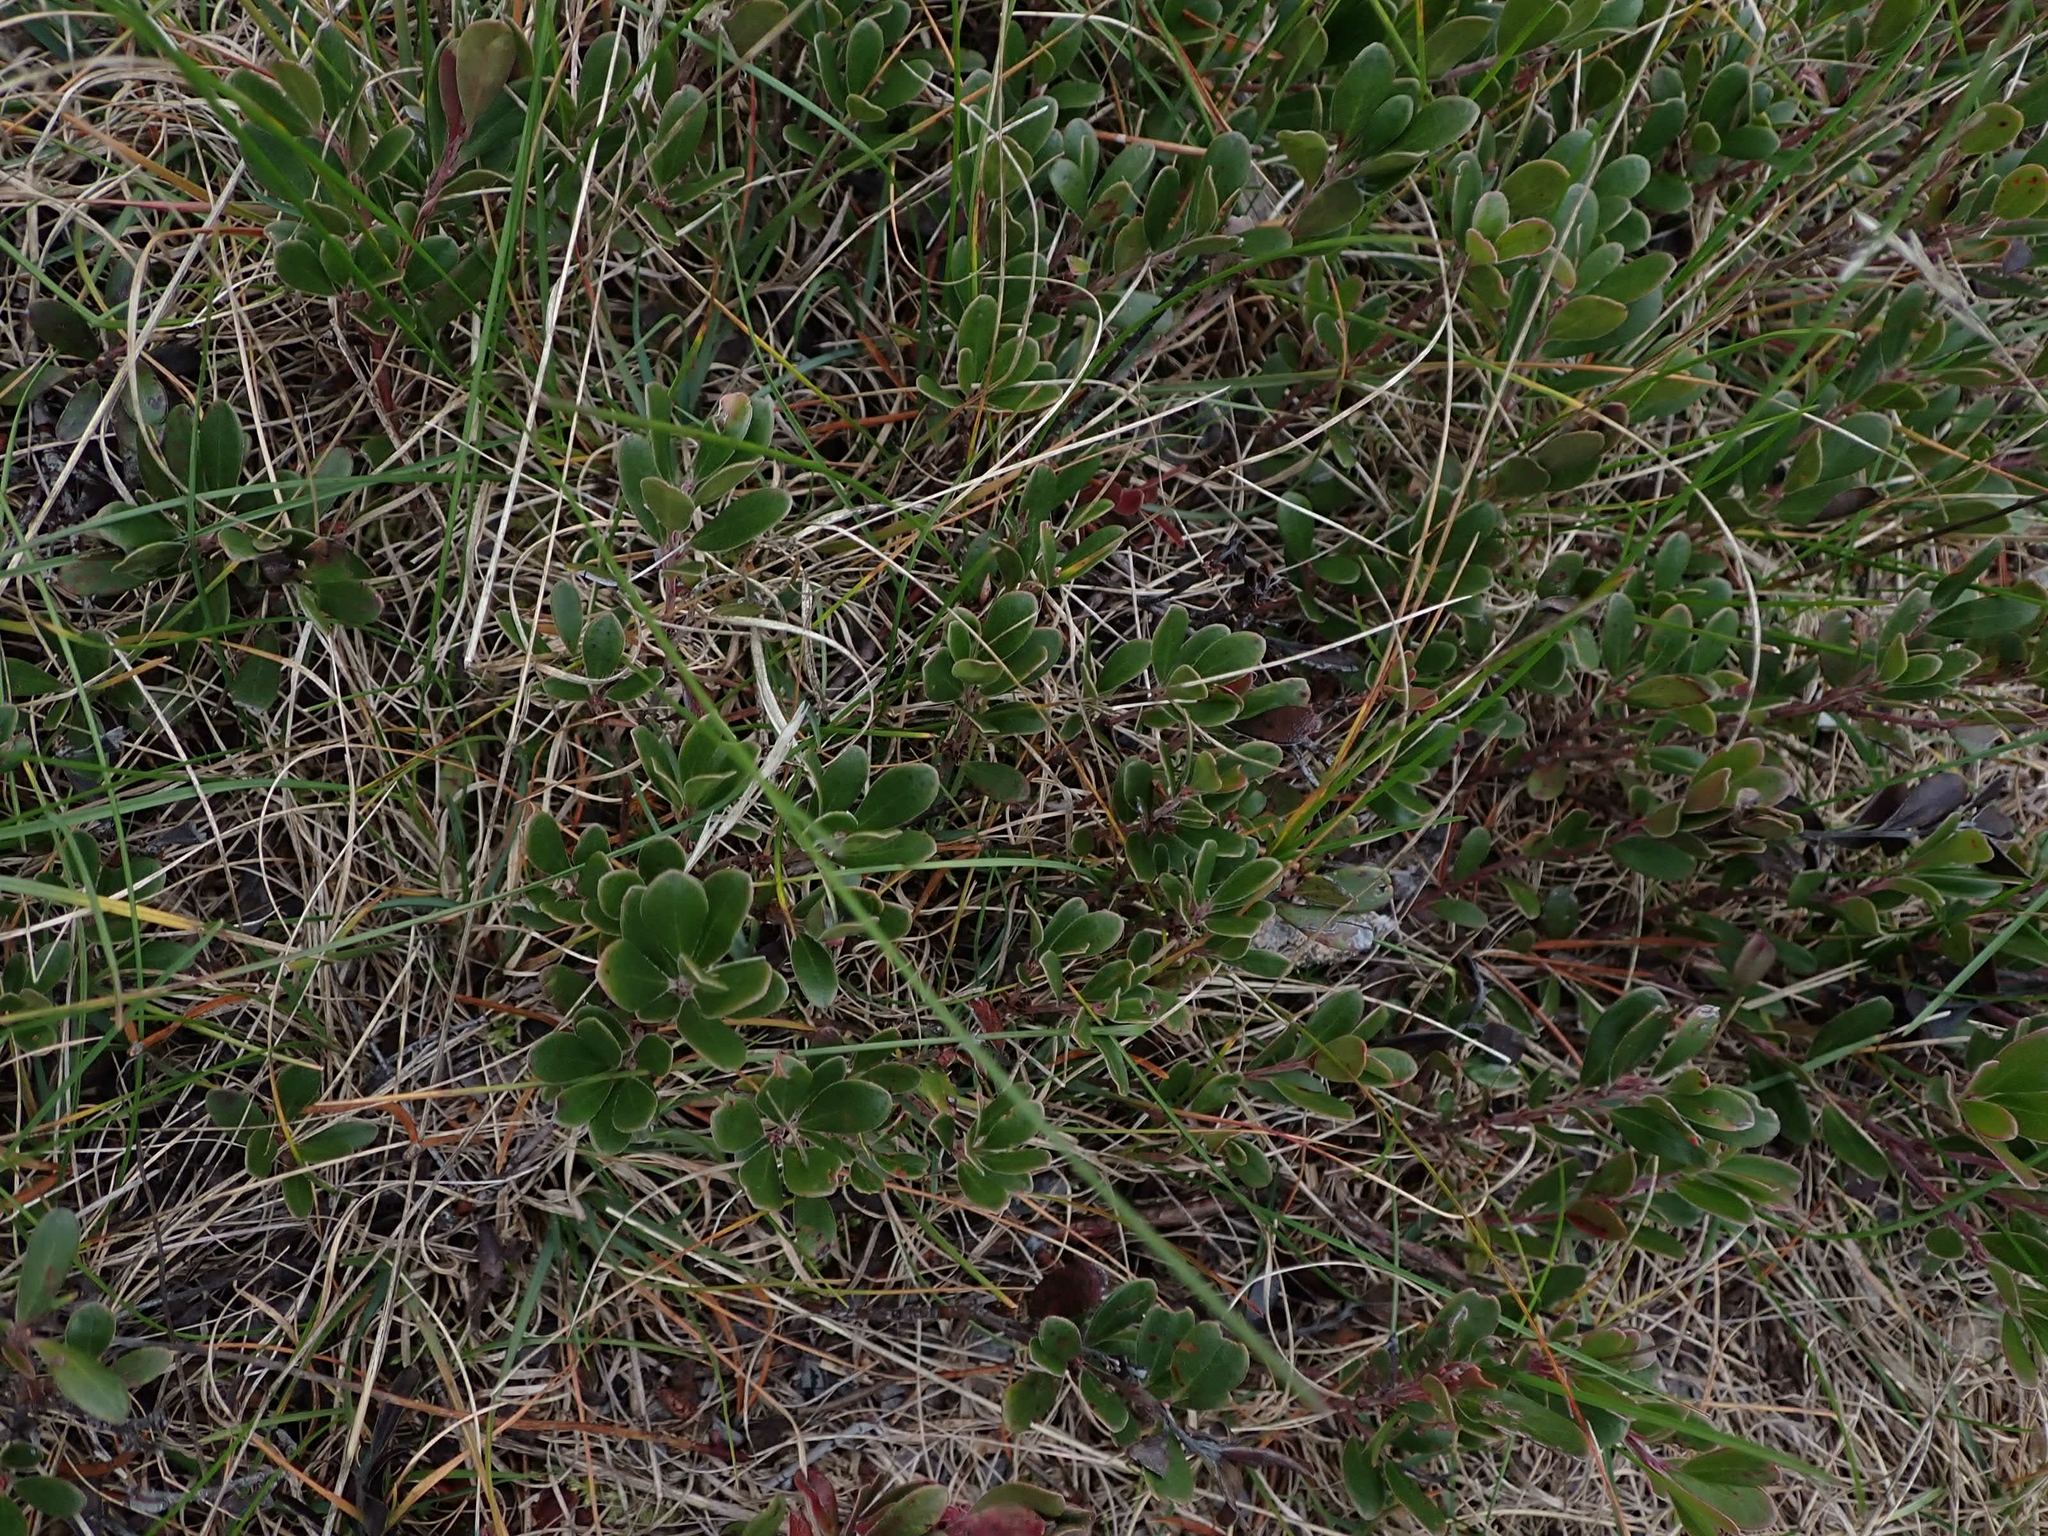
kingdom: Plantae
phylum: Tracheophyta
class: Magnoliopsida
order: Ericales
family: Ericaceae
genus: Arctostaphylos
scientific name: Arctostaphylos uva-ursi
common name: Bearberry
